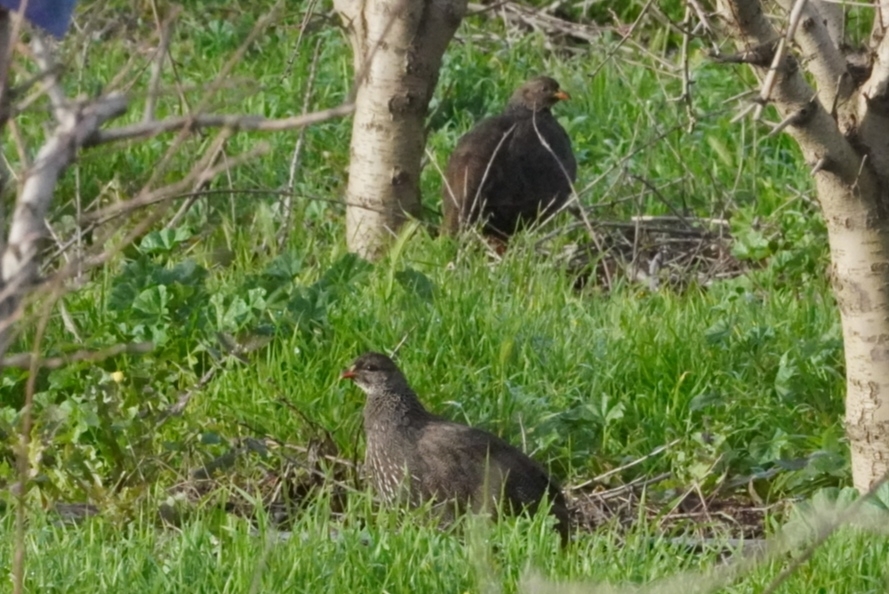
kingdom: Animalia
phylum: Chordata
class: Aves
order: Galliformes
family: Phasianidae
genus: Pternistis
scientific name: Pternistis capensis
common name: Cape spurfowl
